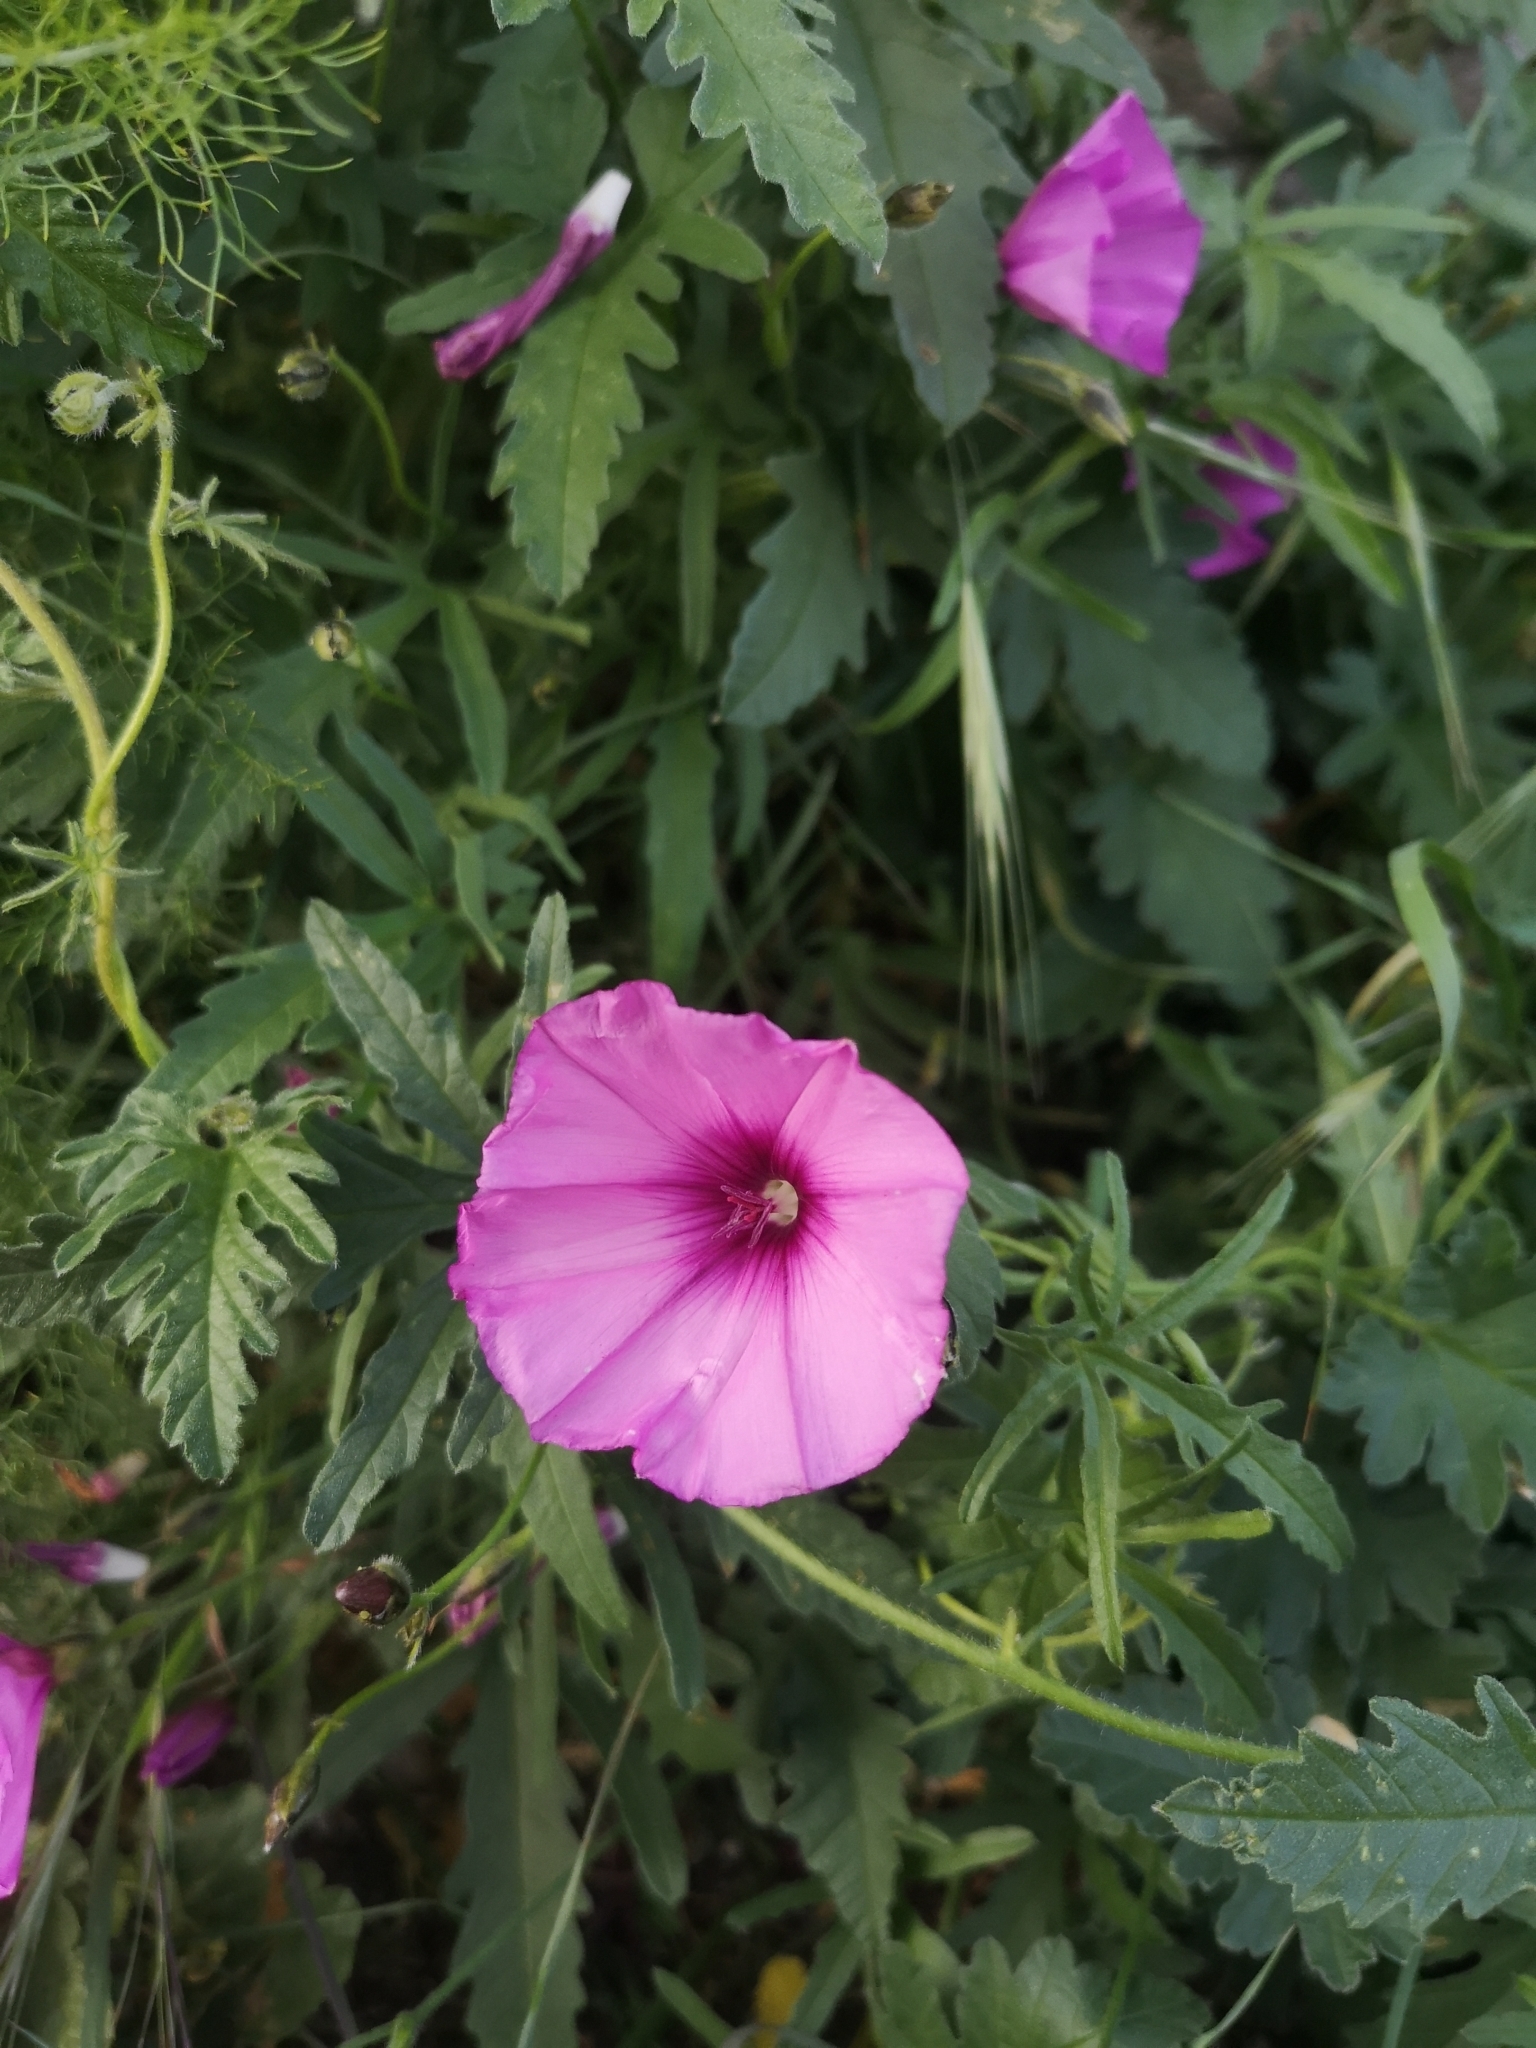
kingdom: Plantae
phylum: Tracheophyta
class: Magnoliopsida
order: Solanales
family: Convolvulaceae
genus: Convolvulus
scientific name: Convolvulus althaeoides
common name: Mallow bindweed
